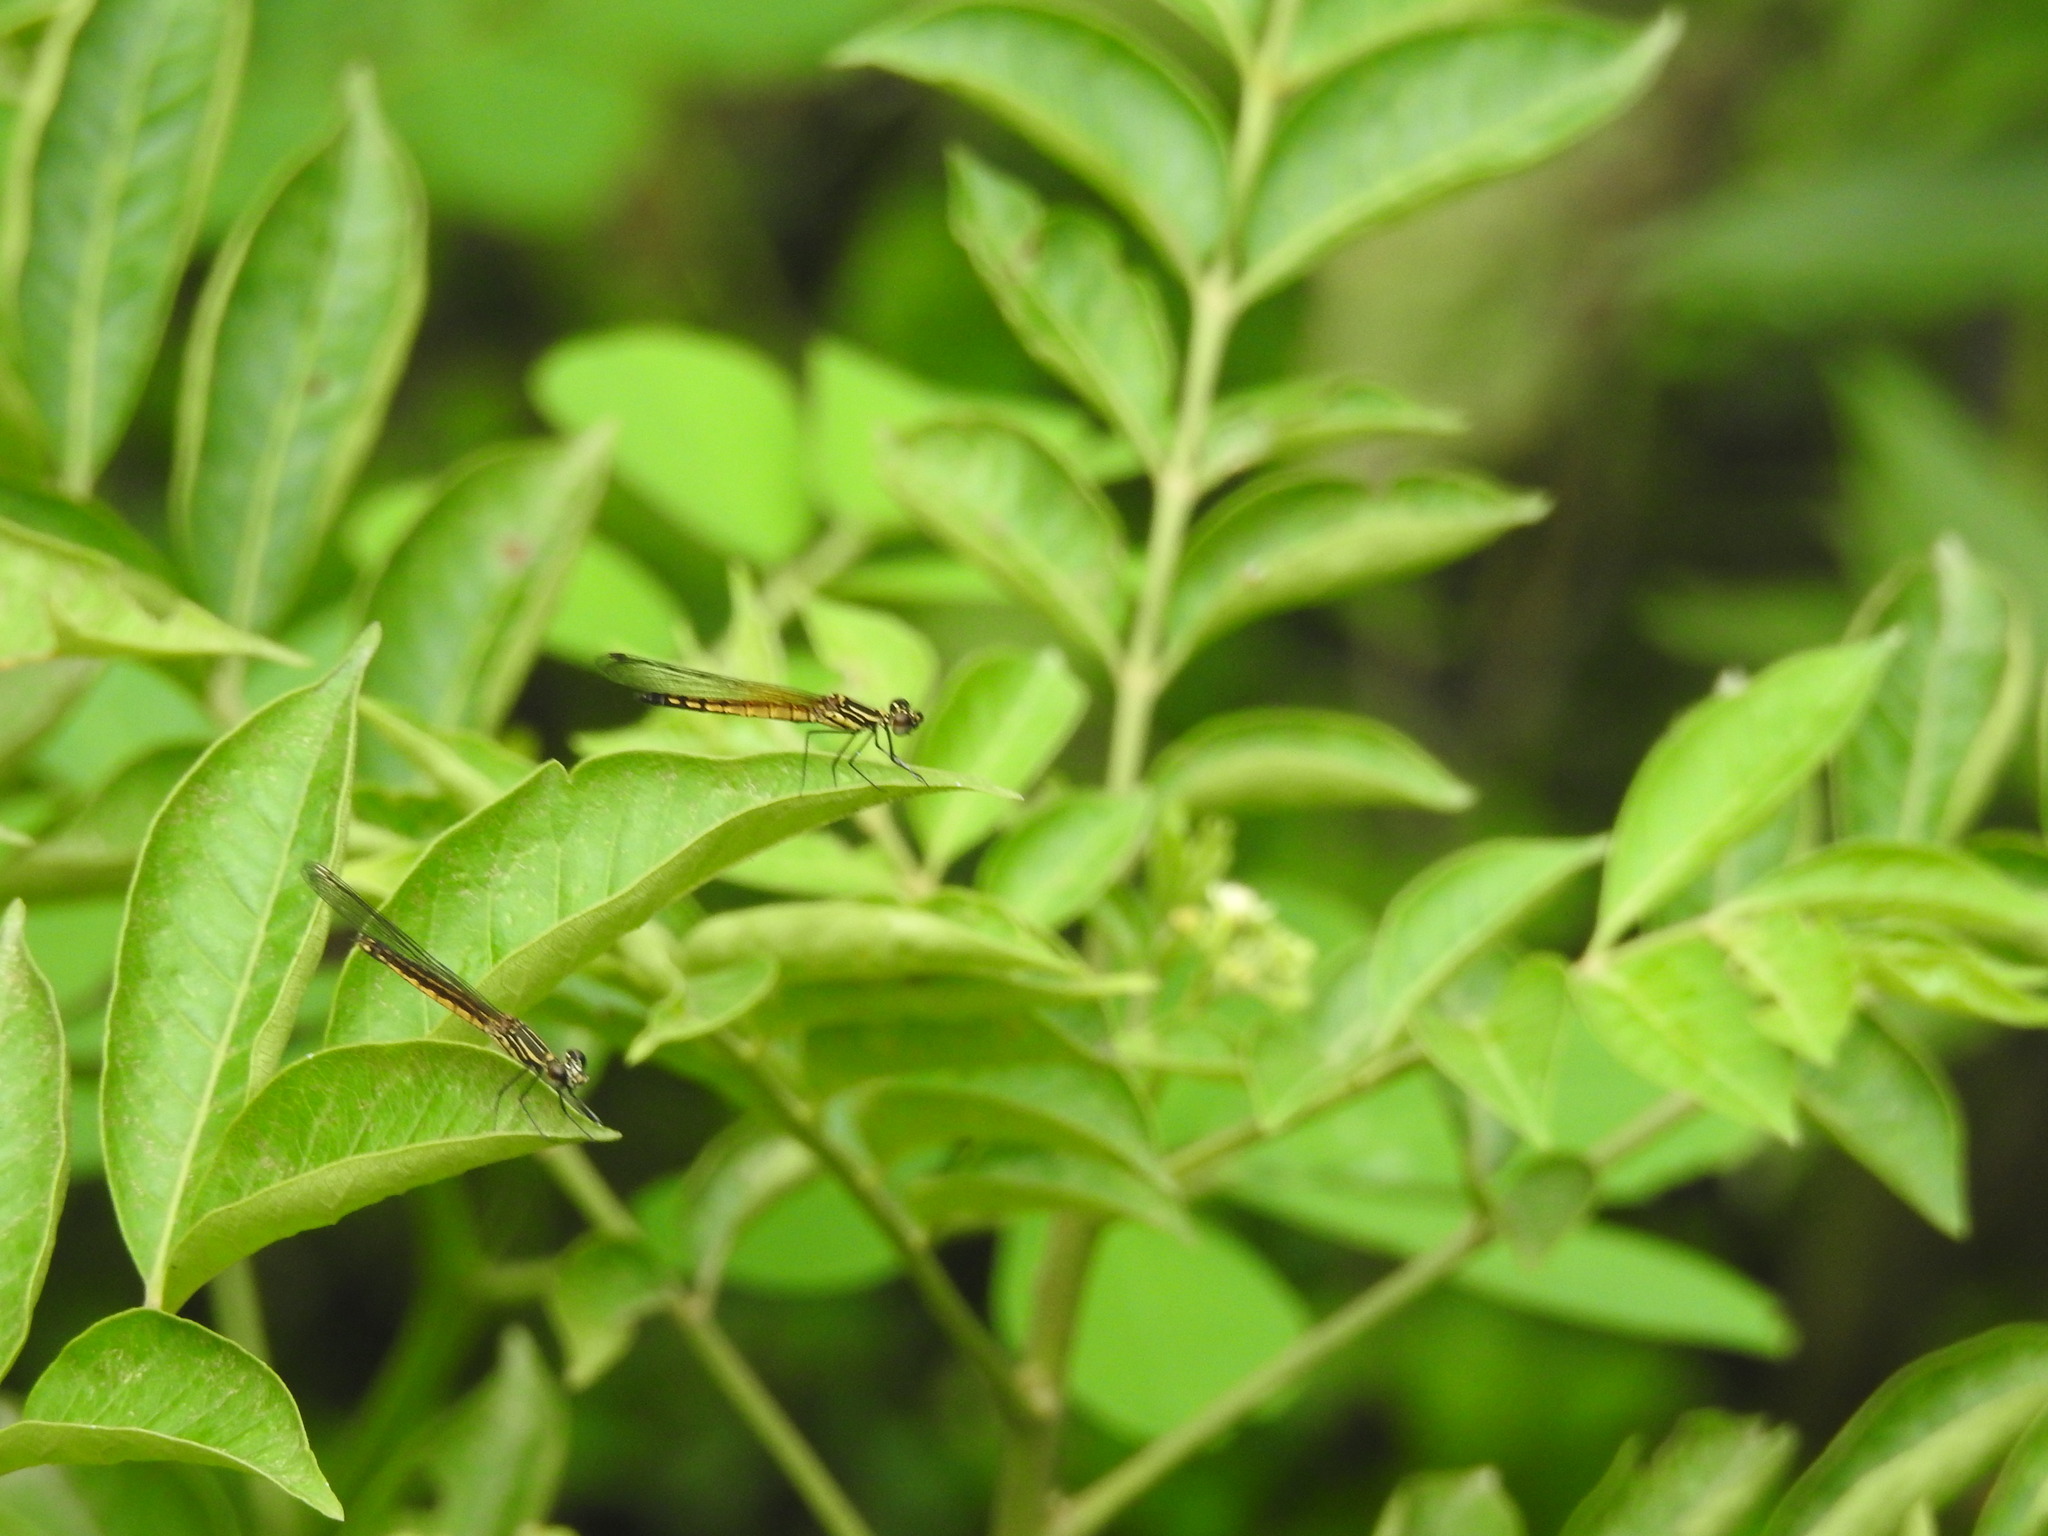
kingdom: Animalia
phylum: Arthropoda
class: Insecta
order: Odonata
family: Chlorocyphidae
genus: Libellago
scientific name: Libellago indica
